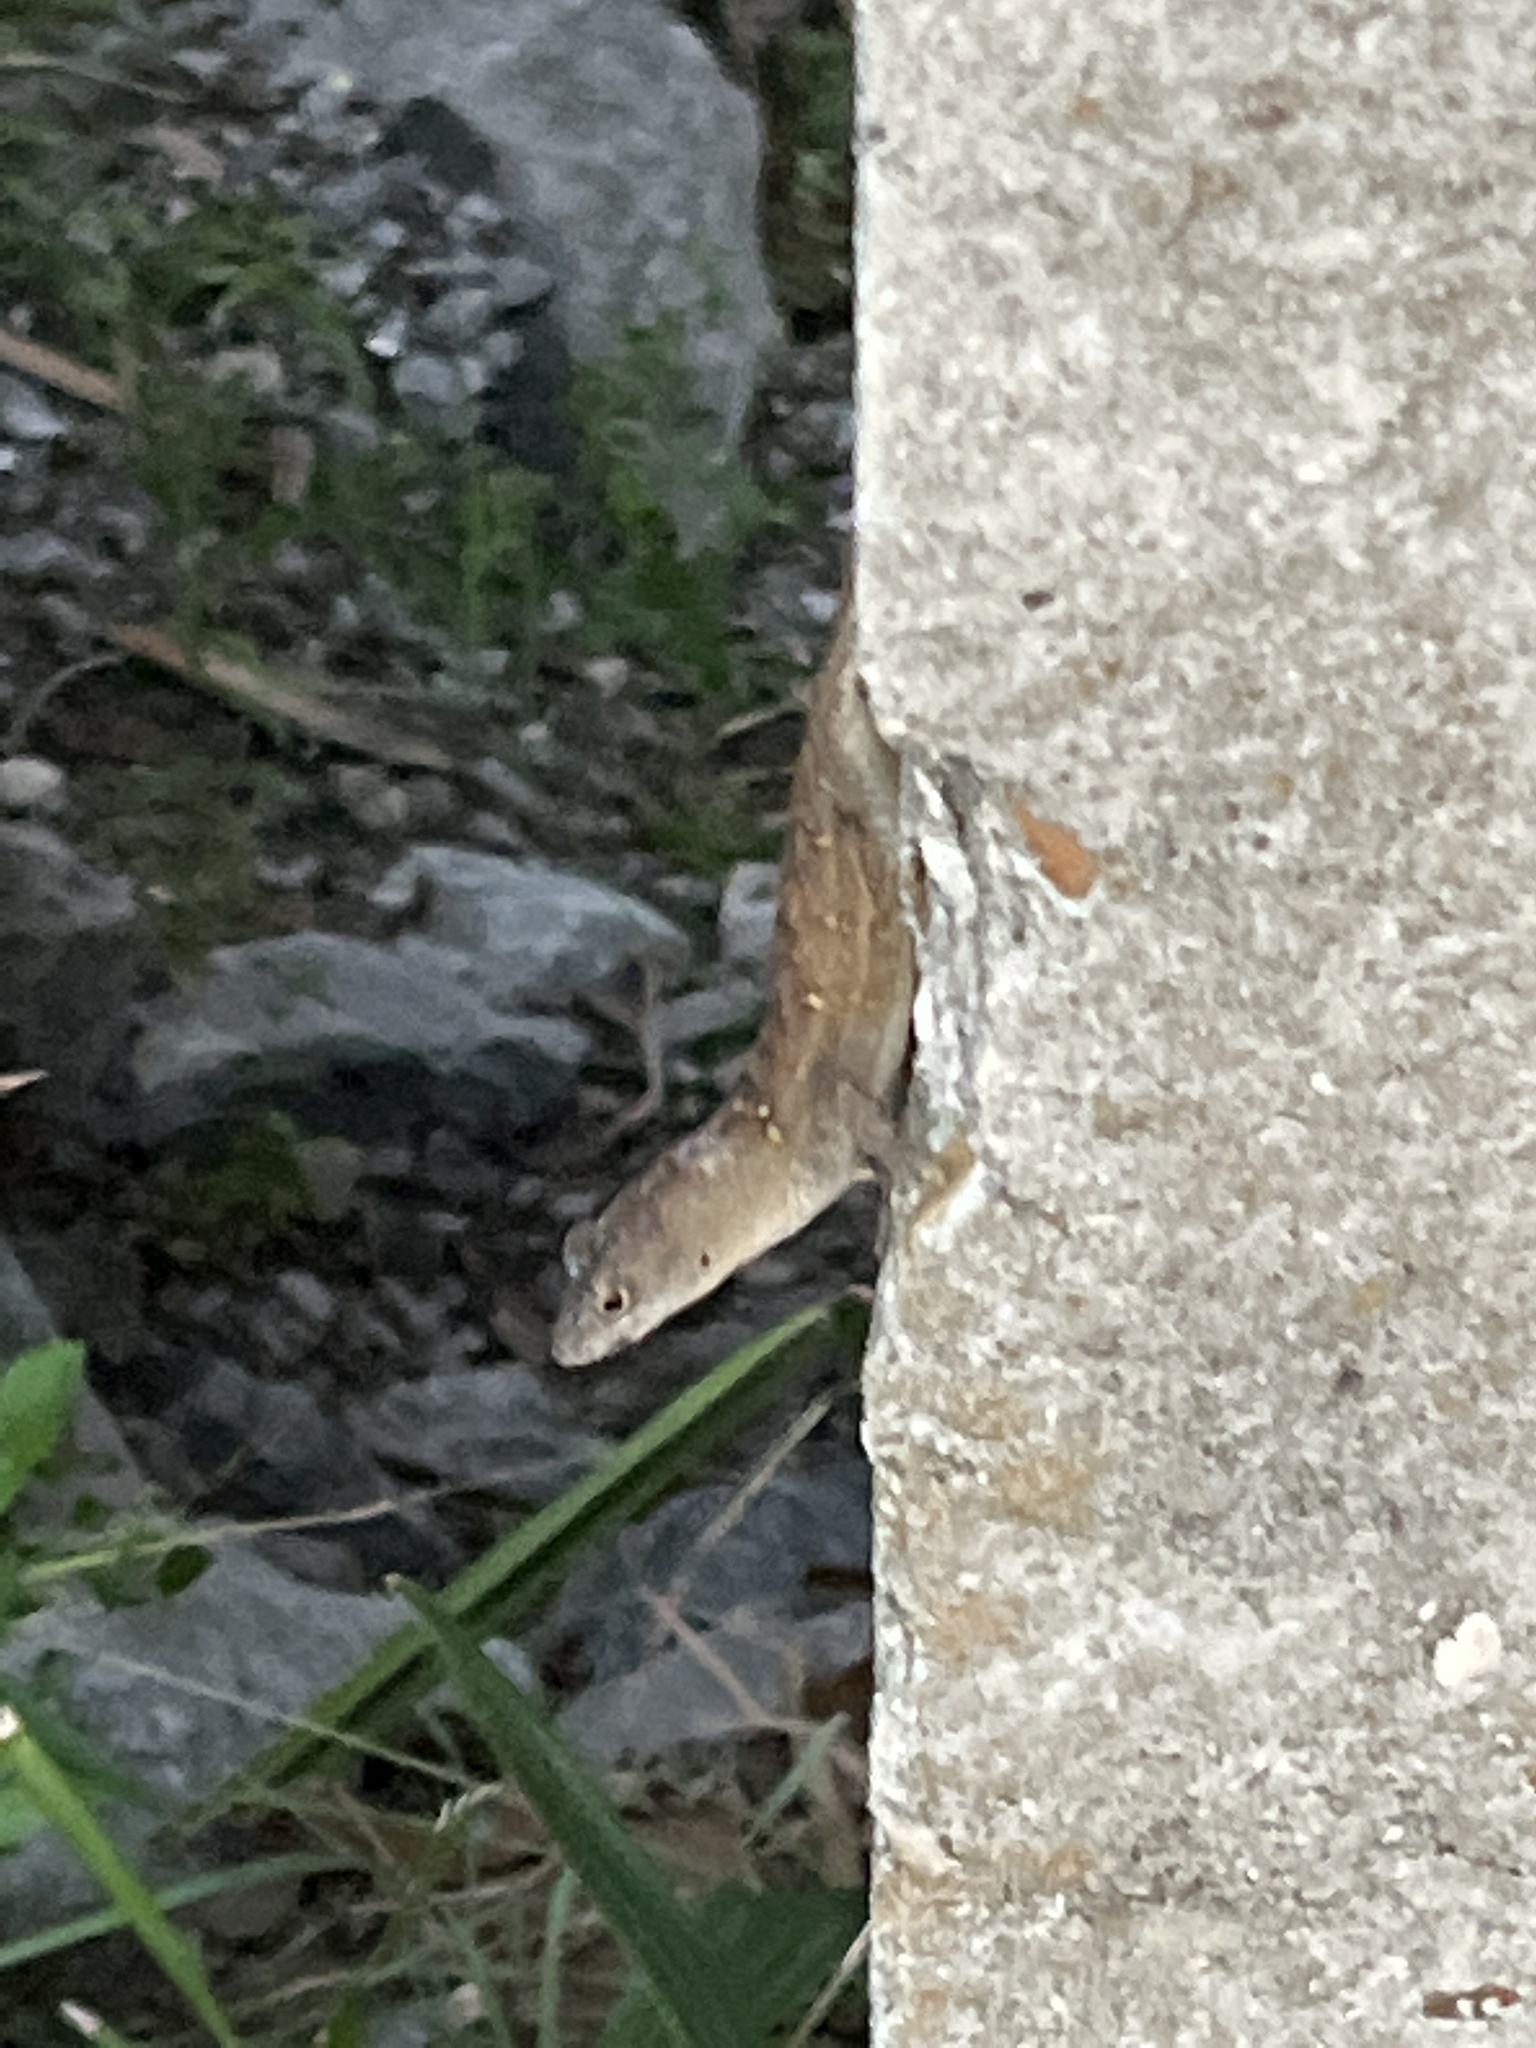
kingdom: Animalia
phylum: Chordata
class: Squamata
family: Dactyloidae
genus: Anolis
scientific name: Anolis sagrei
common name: Brown anole
